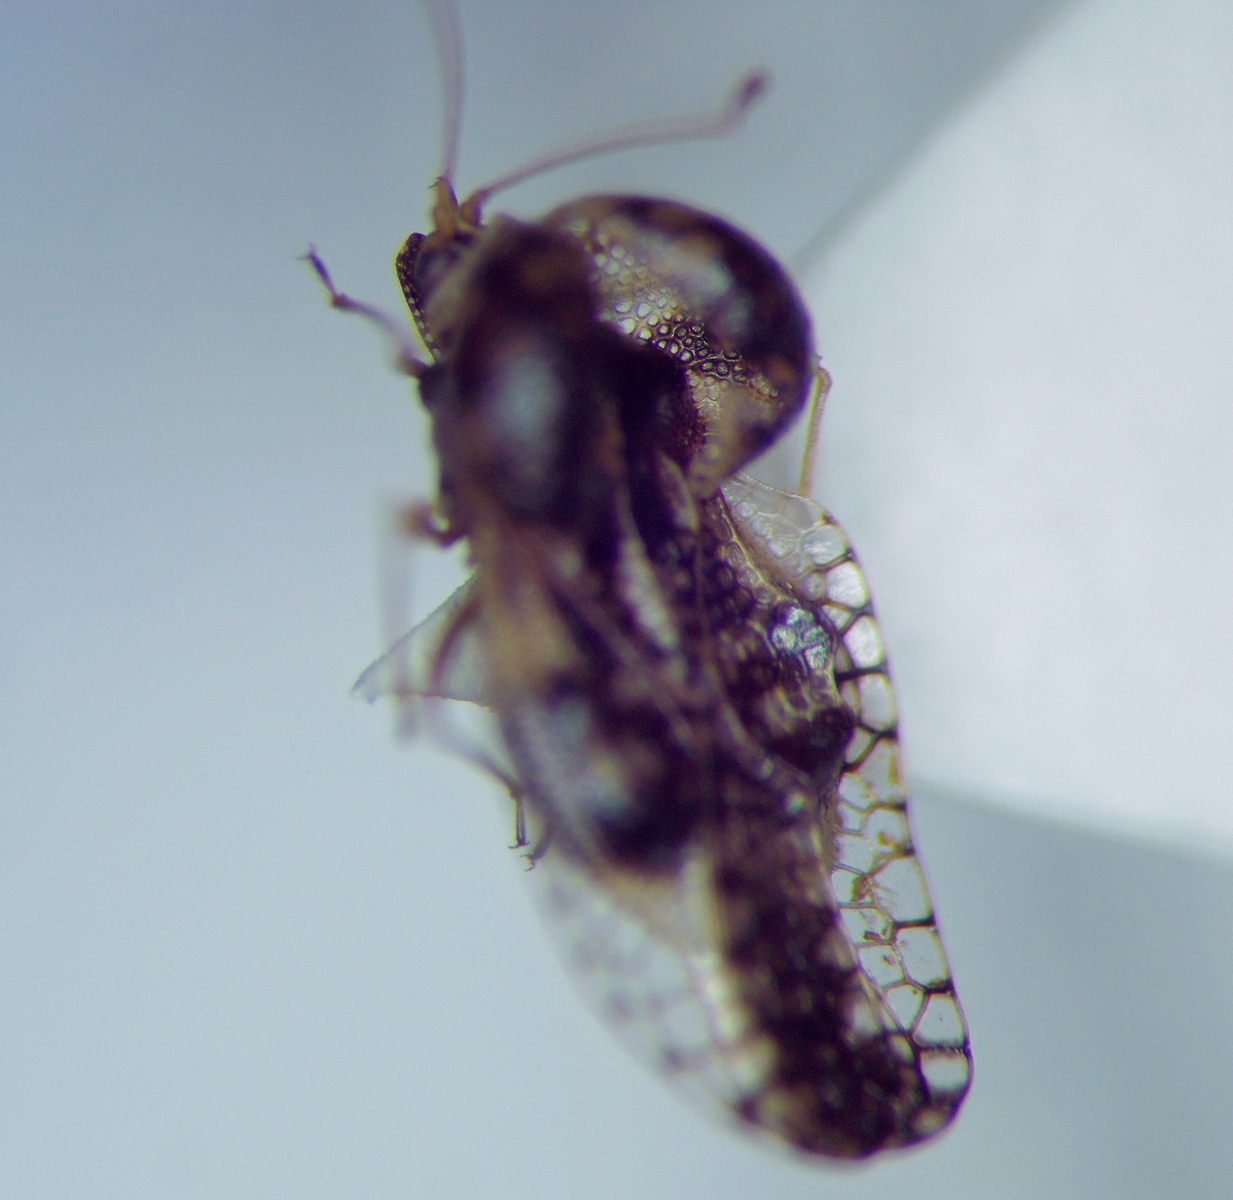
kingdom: Animalia
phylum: Arthropoda
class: Insecta
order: Hemiptera
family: Tingidae
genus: Cochlochila
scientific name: Cochlochila conchata
